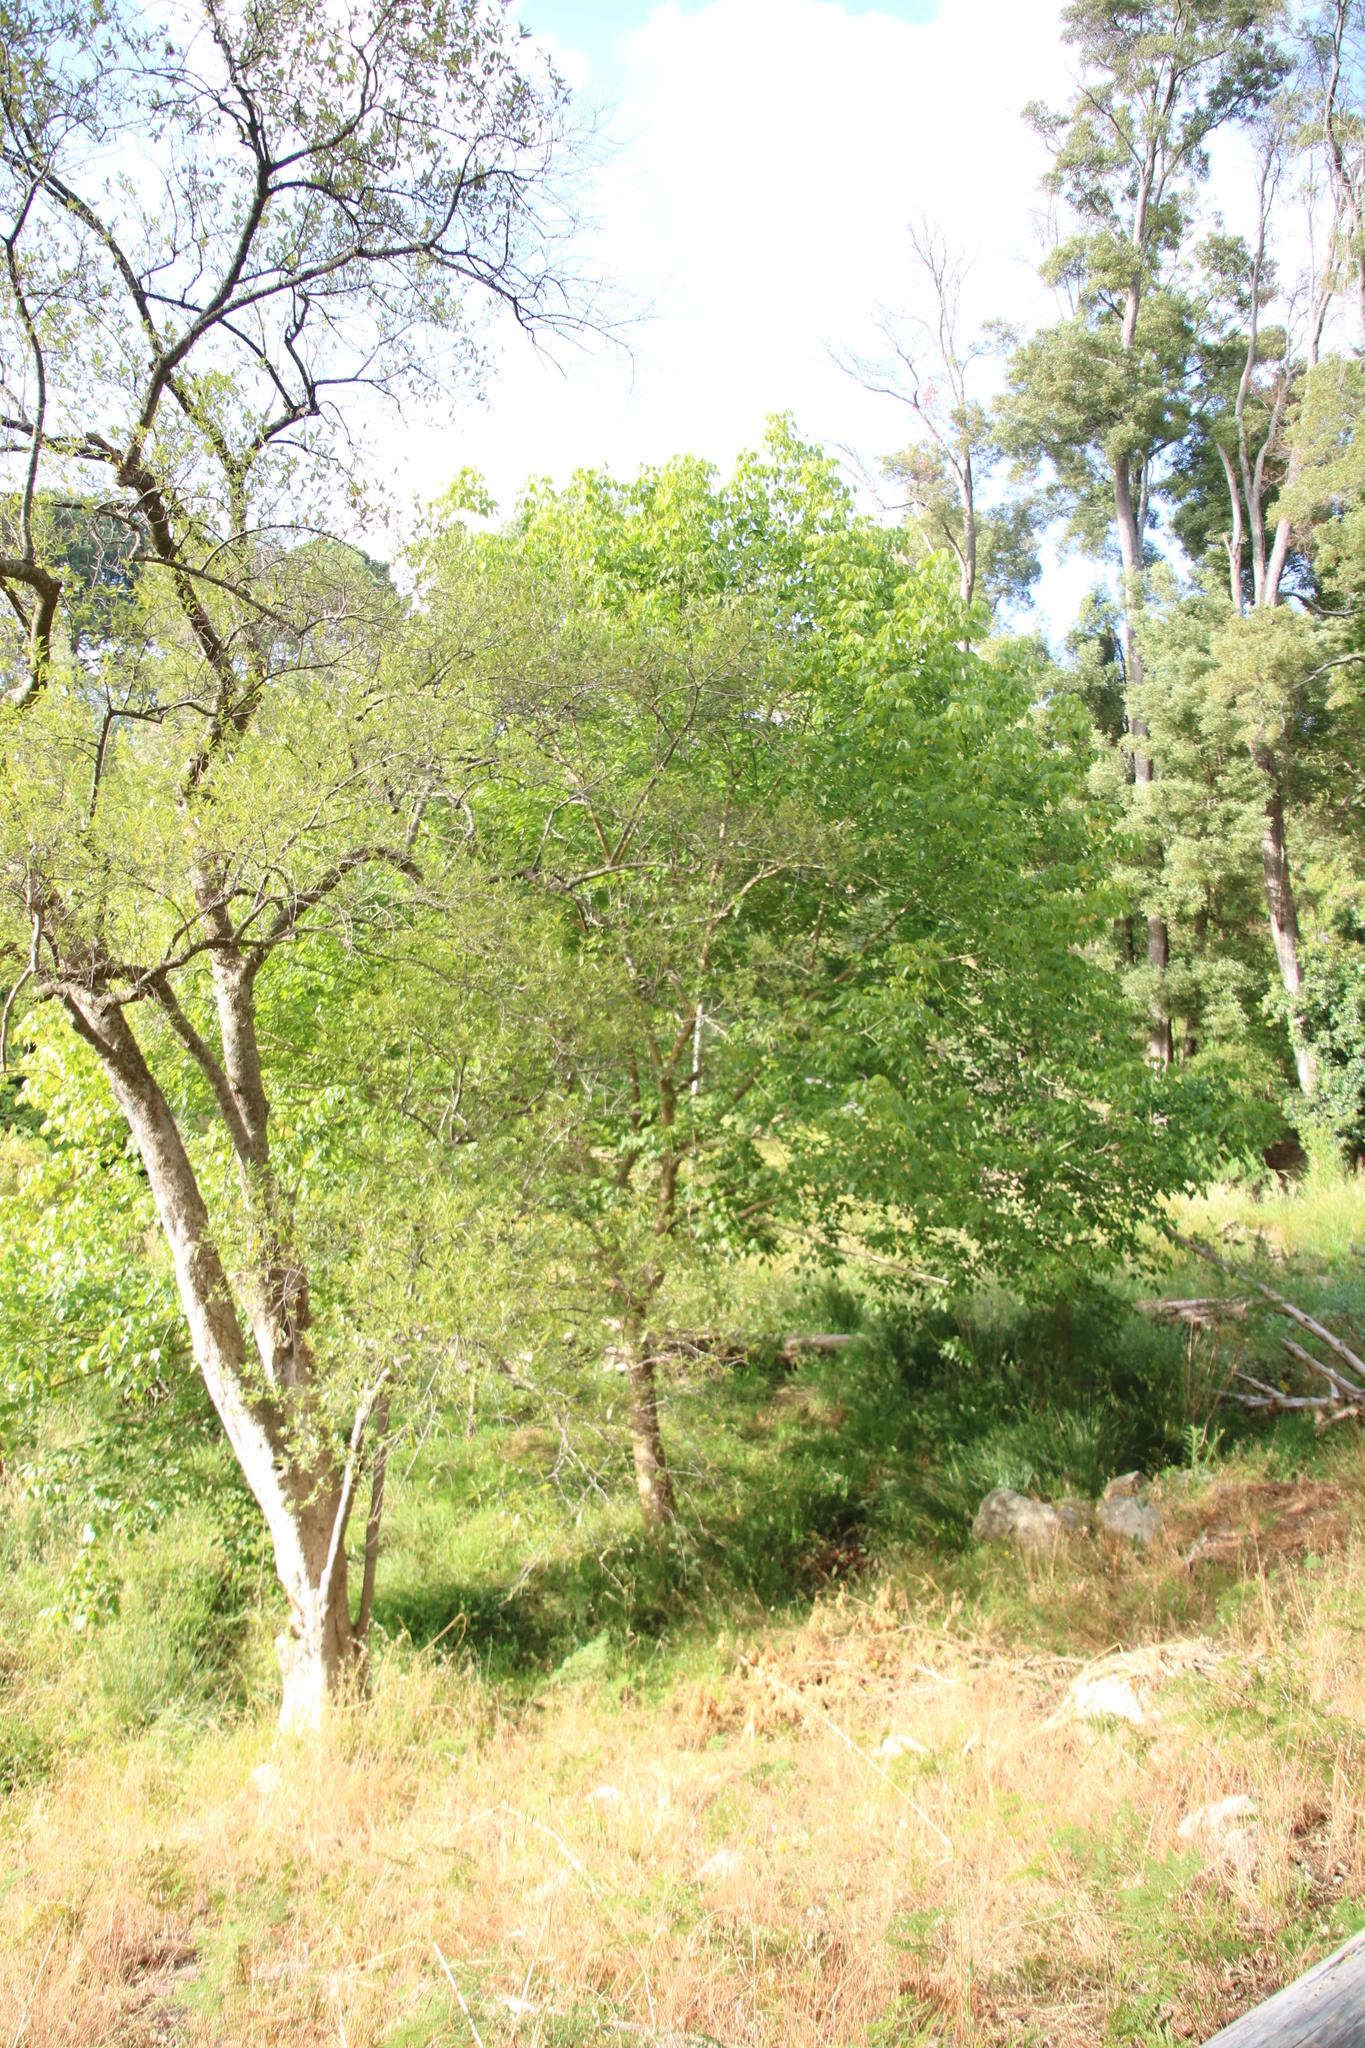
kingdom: Plantae
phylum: Tracheophyta
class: Magnoliopsida
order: Sapindales
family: Sapindaceae
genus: Acer
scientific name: Acer negundo
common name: Ashleaf maple
